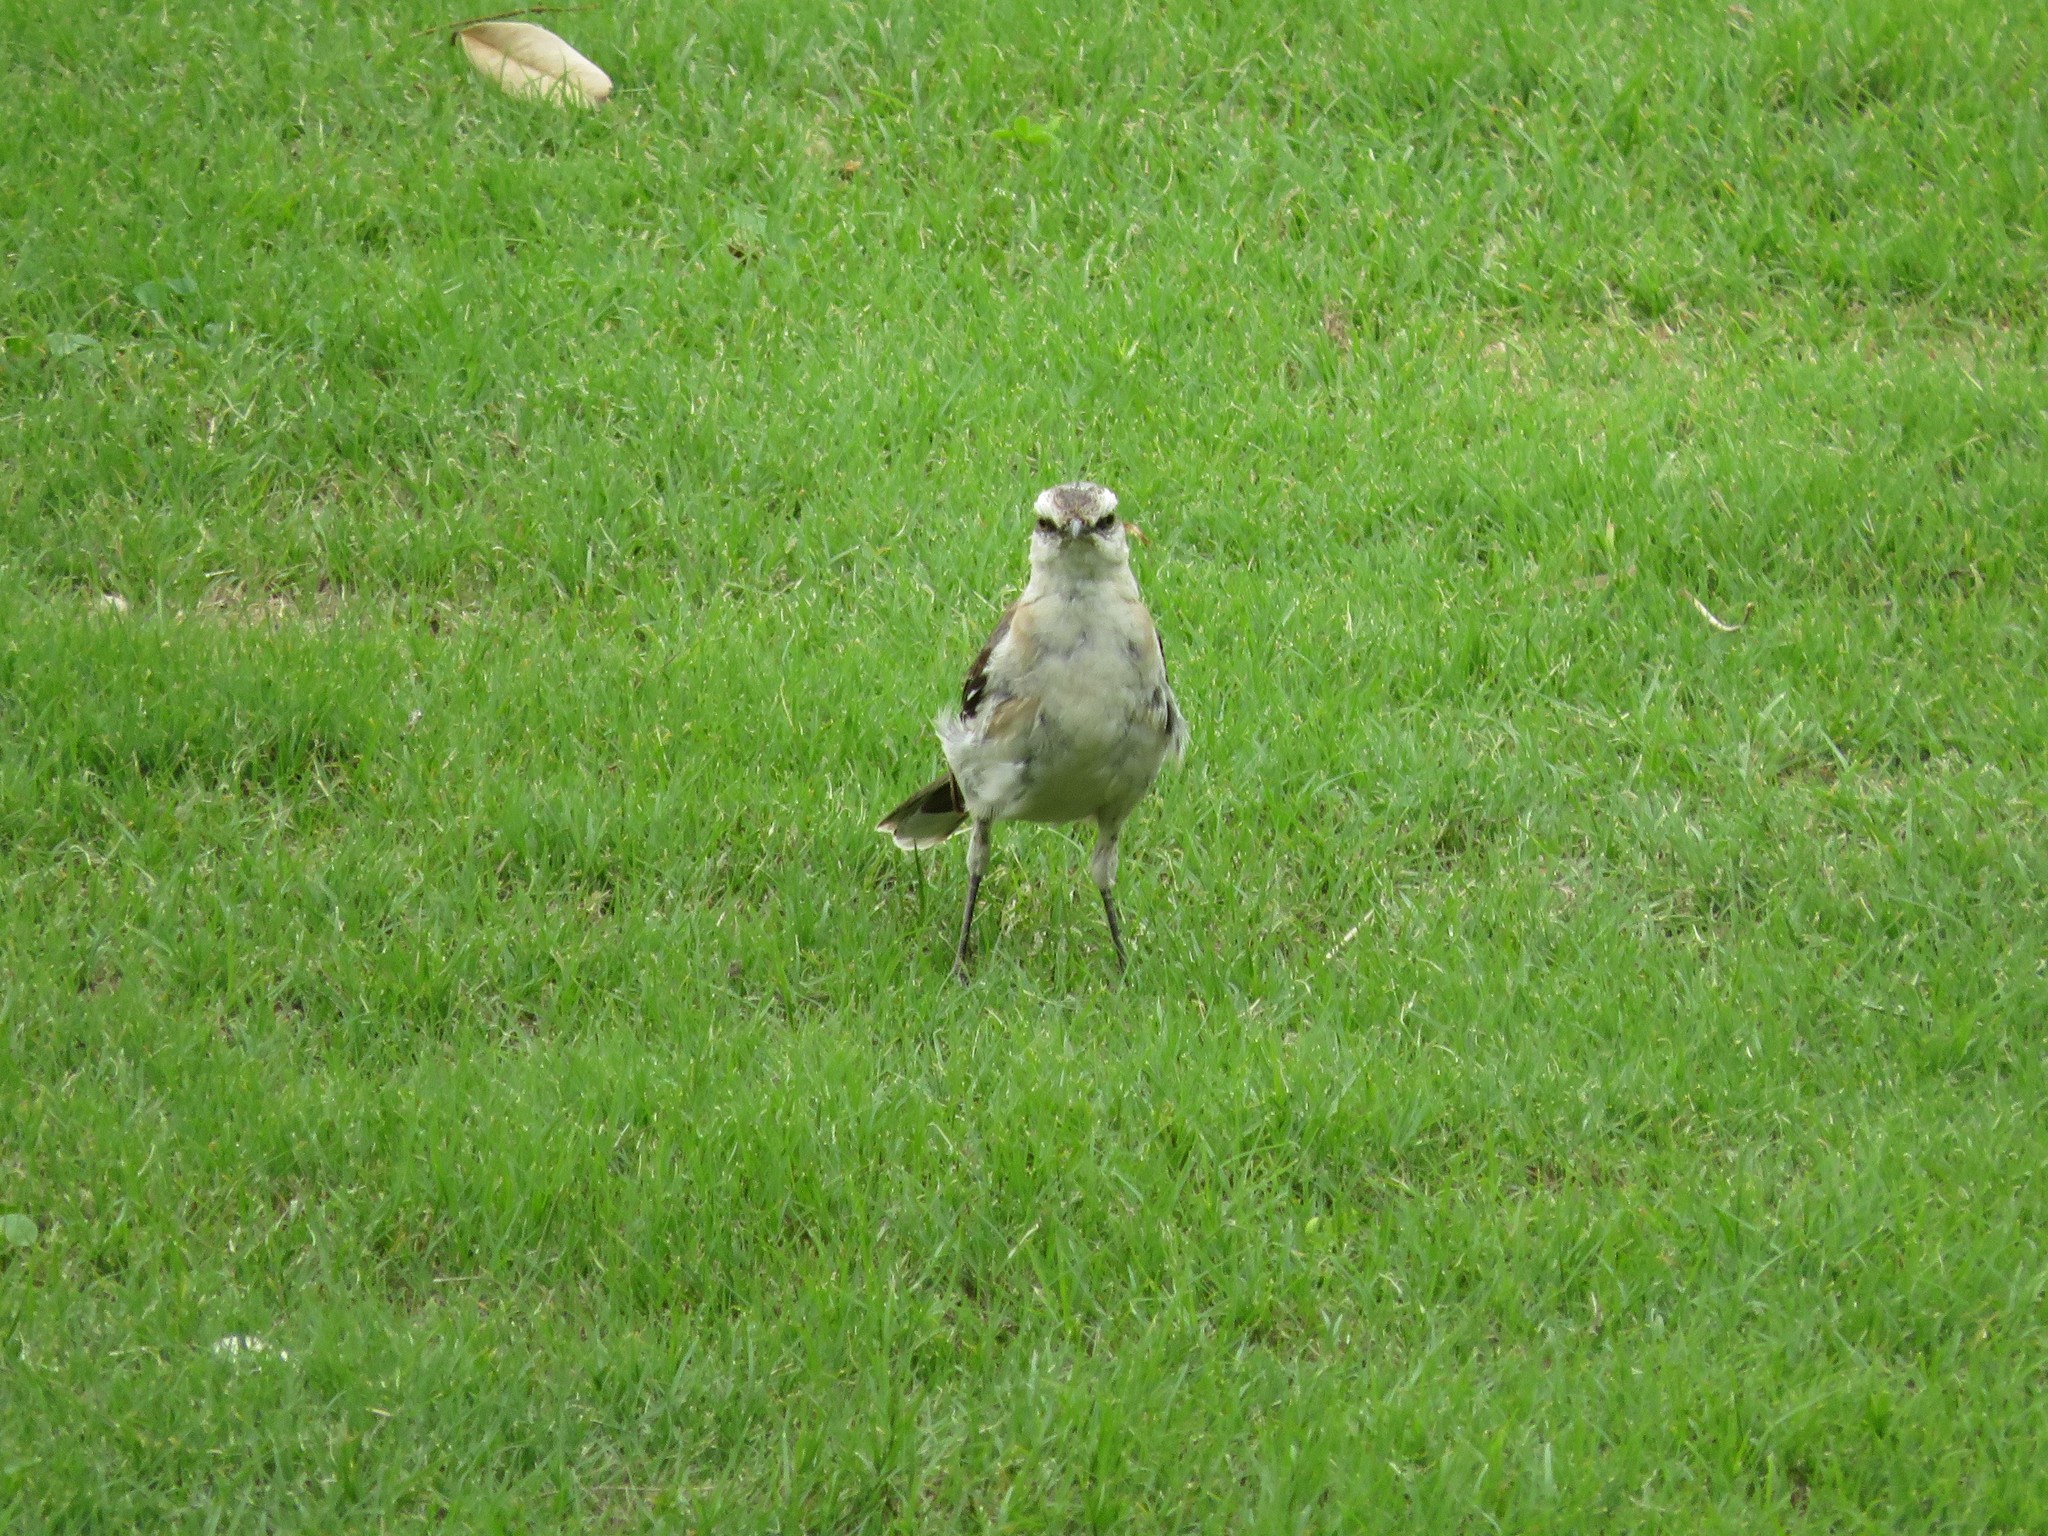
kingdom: Animalia
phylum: Chordata
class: Aves
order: Passeriformes
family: Mimidae
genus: Mimus
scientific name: Mimus saturninus
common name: Chalk-browed mockingbird
